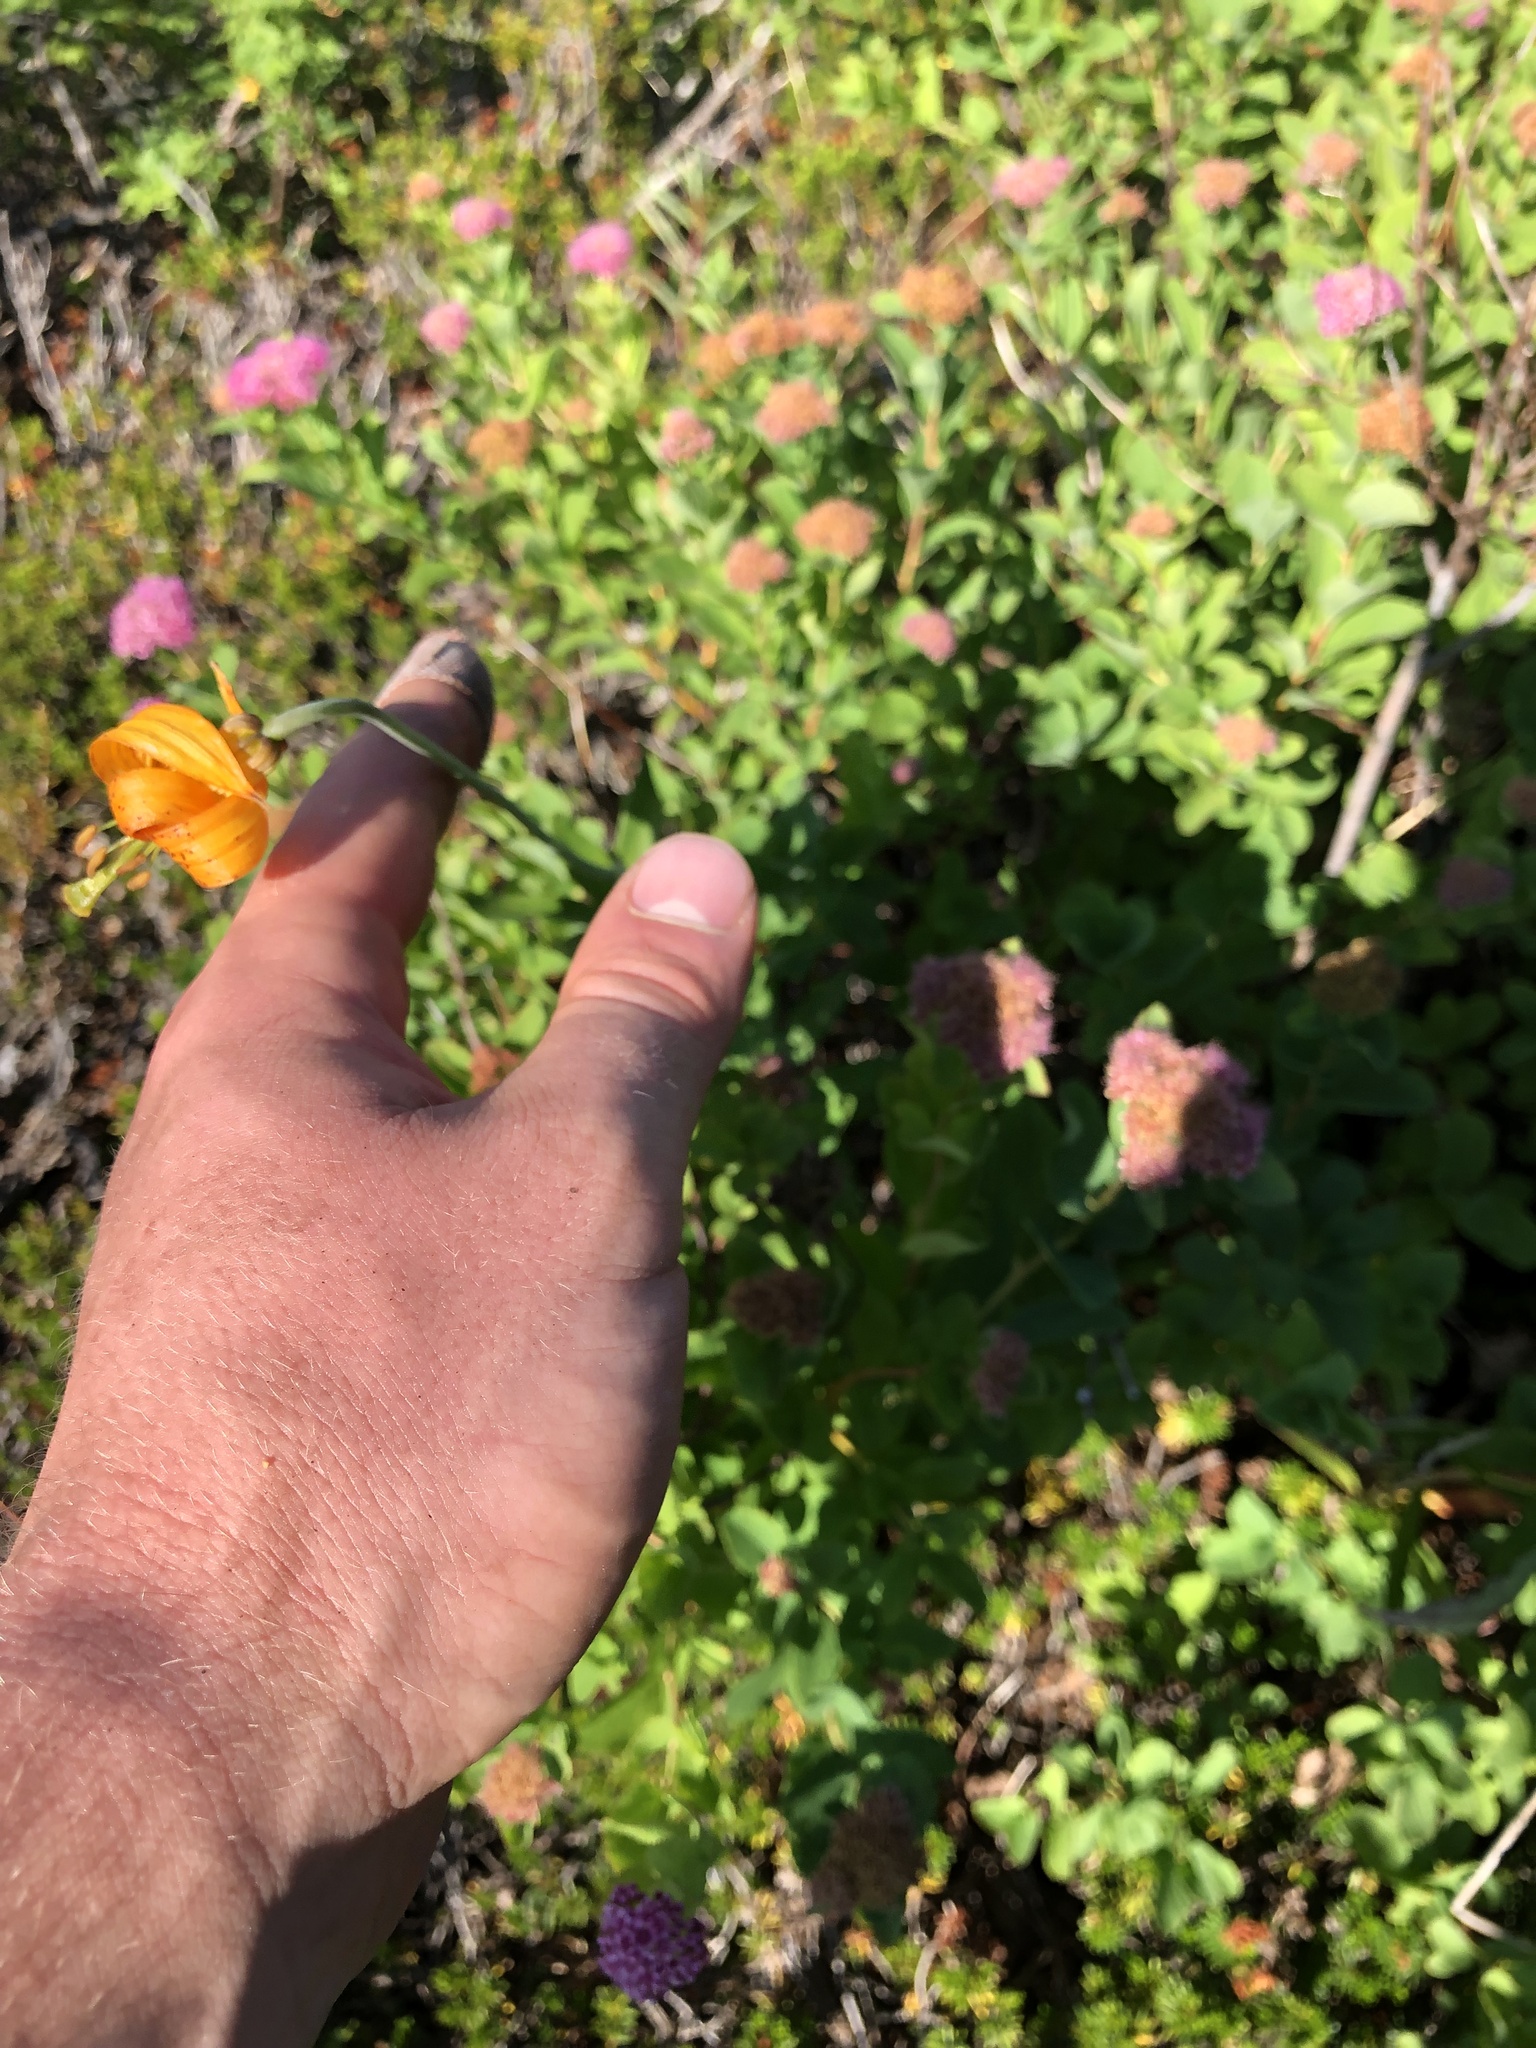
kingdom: Plantae
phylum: Tracheophyta
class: Liliopsida
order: Liliales
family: Liliaceae
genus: Lilium
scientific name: Lilium columbianum
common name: Columbia lily
